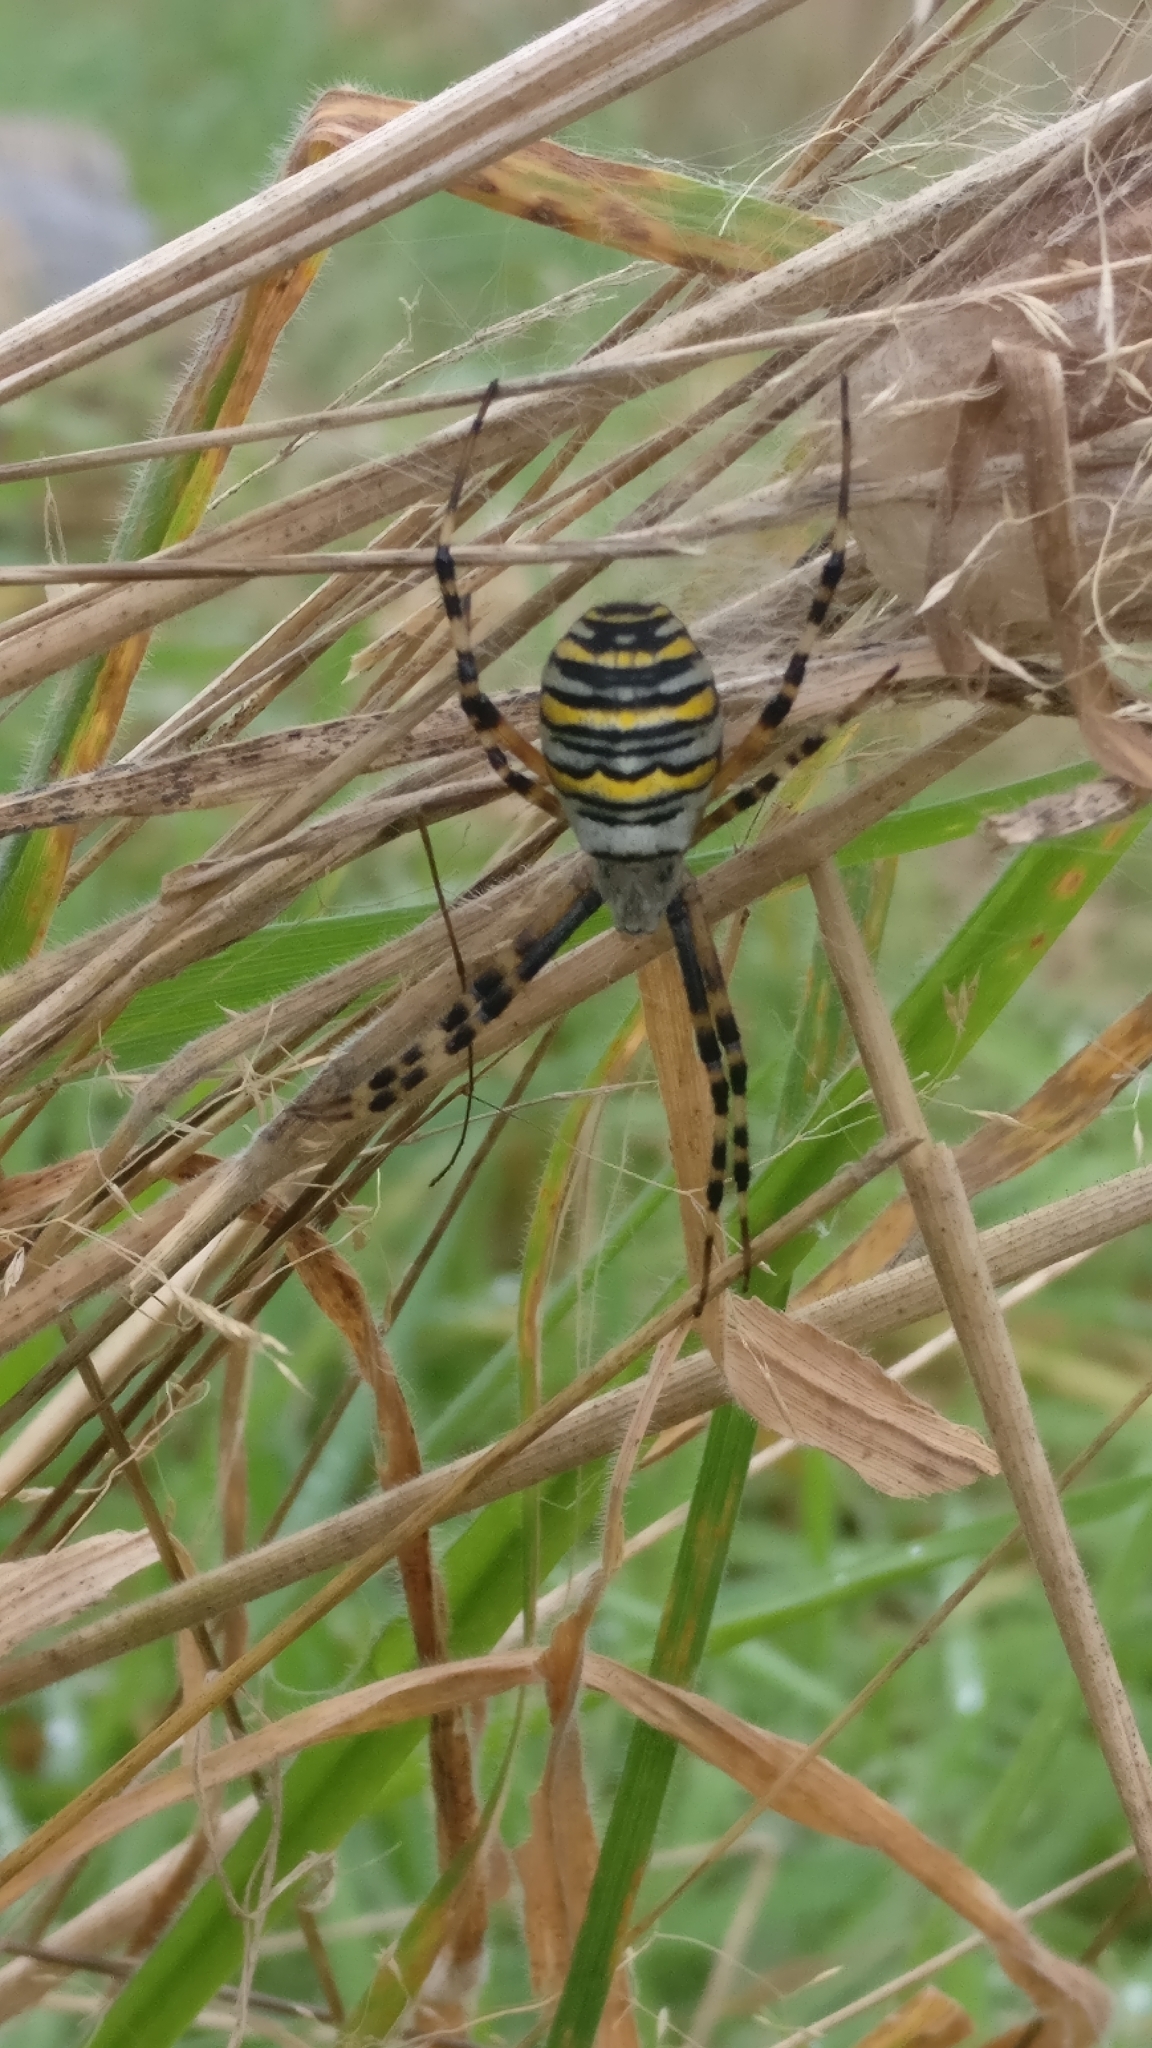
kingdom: Animalia
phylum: Arthropoda
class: Arachnida
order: Araneae
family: Araneidae
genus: Argiope
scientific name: Argiope bruennichi
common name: Wasp spider
